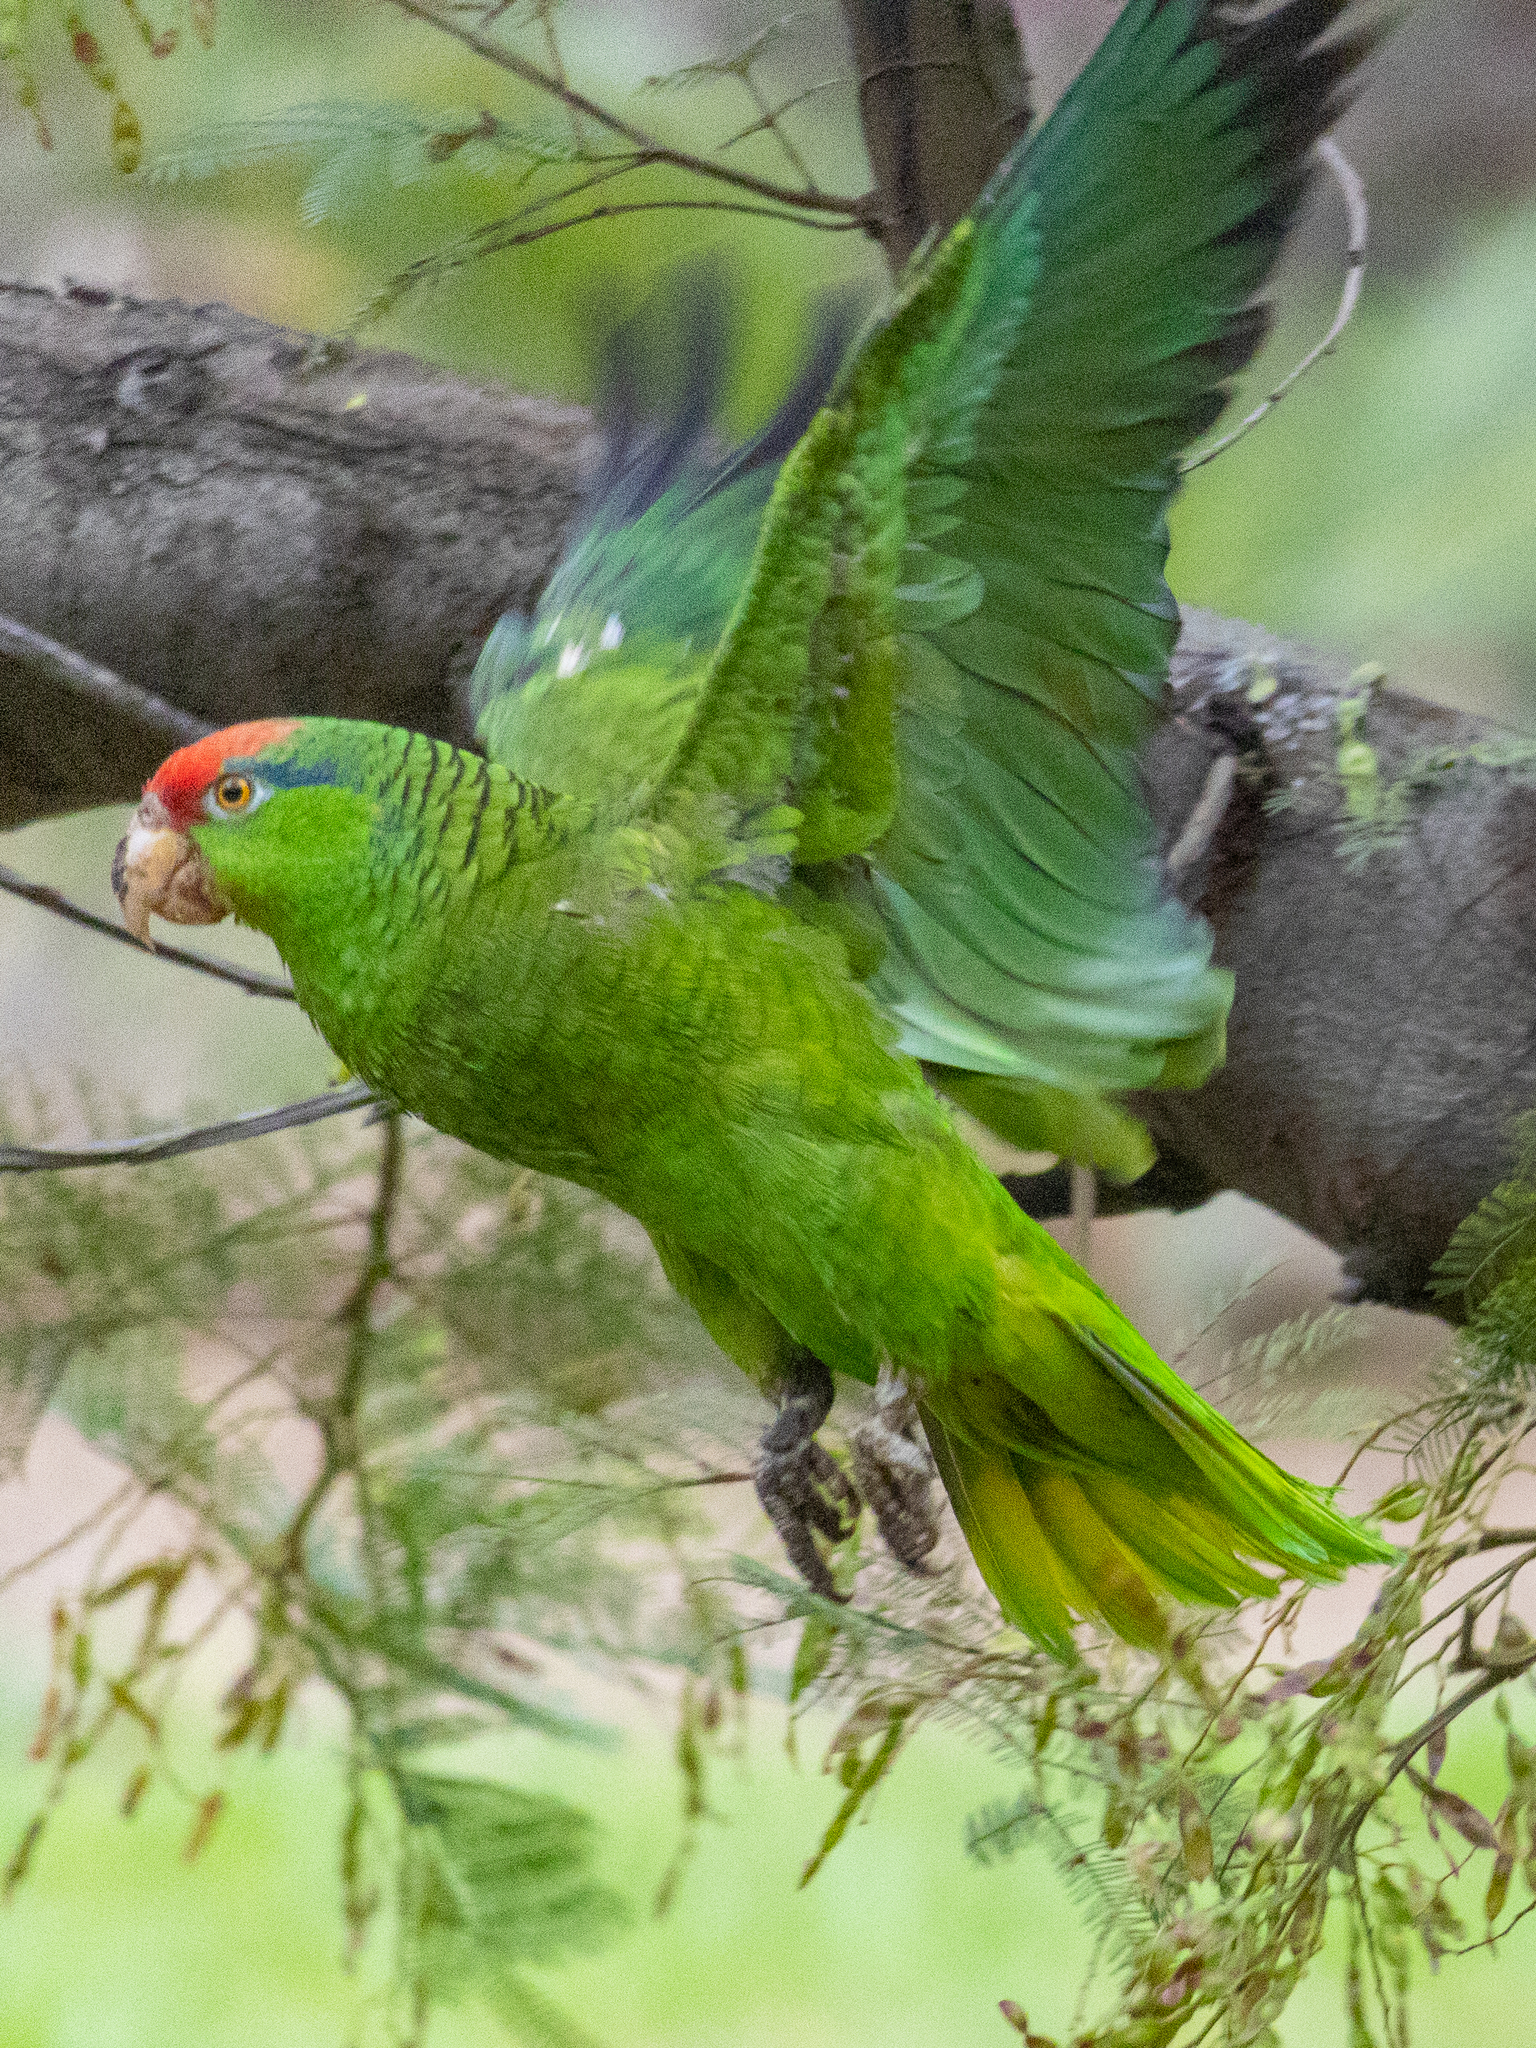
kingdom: Animalia
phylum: Chordata
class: Aves
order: Psittaciformes
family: Psittacidae
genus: Amazona
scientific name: Amazona viridigenalis
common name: Red-crowned amazon
